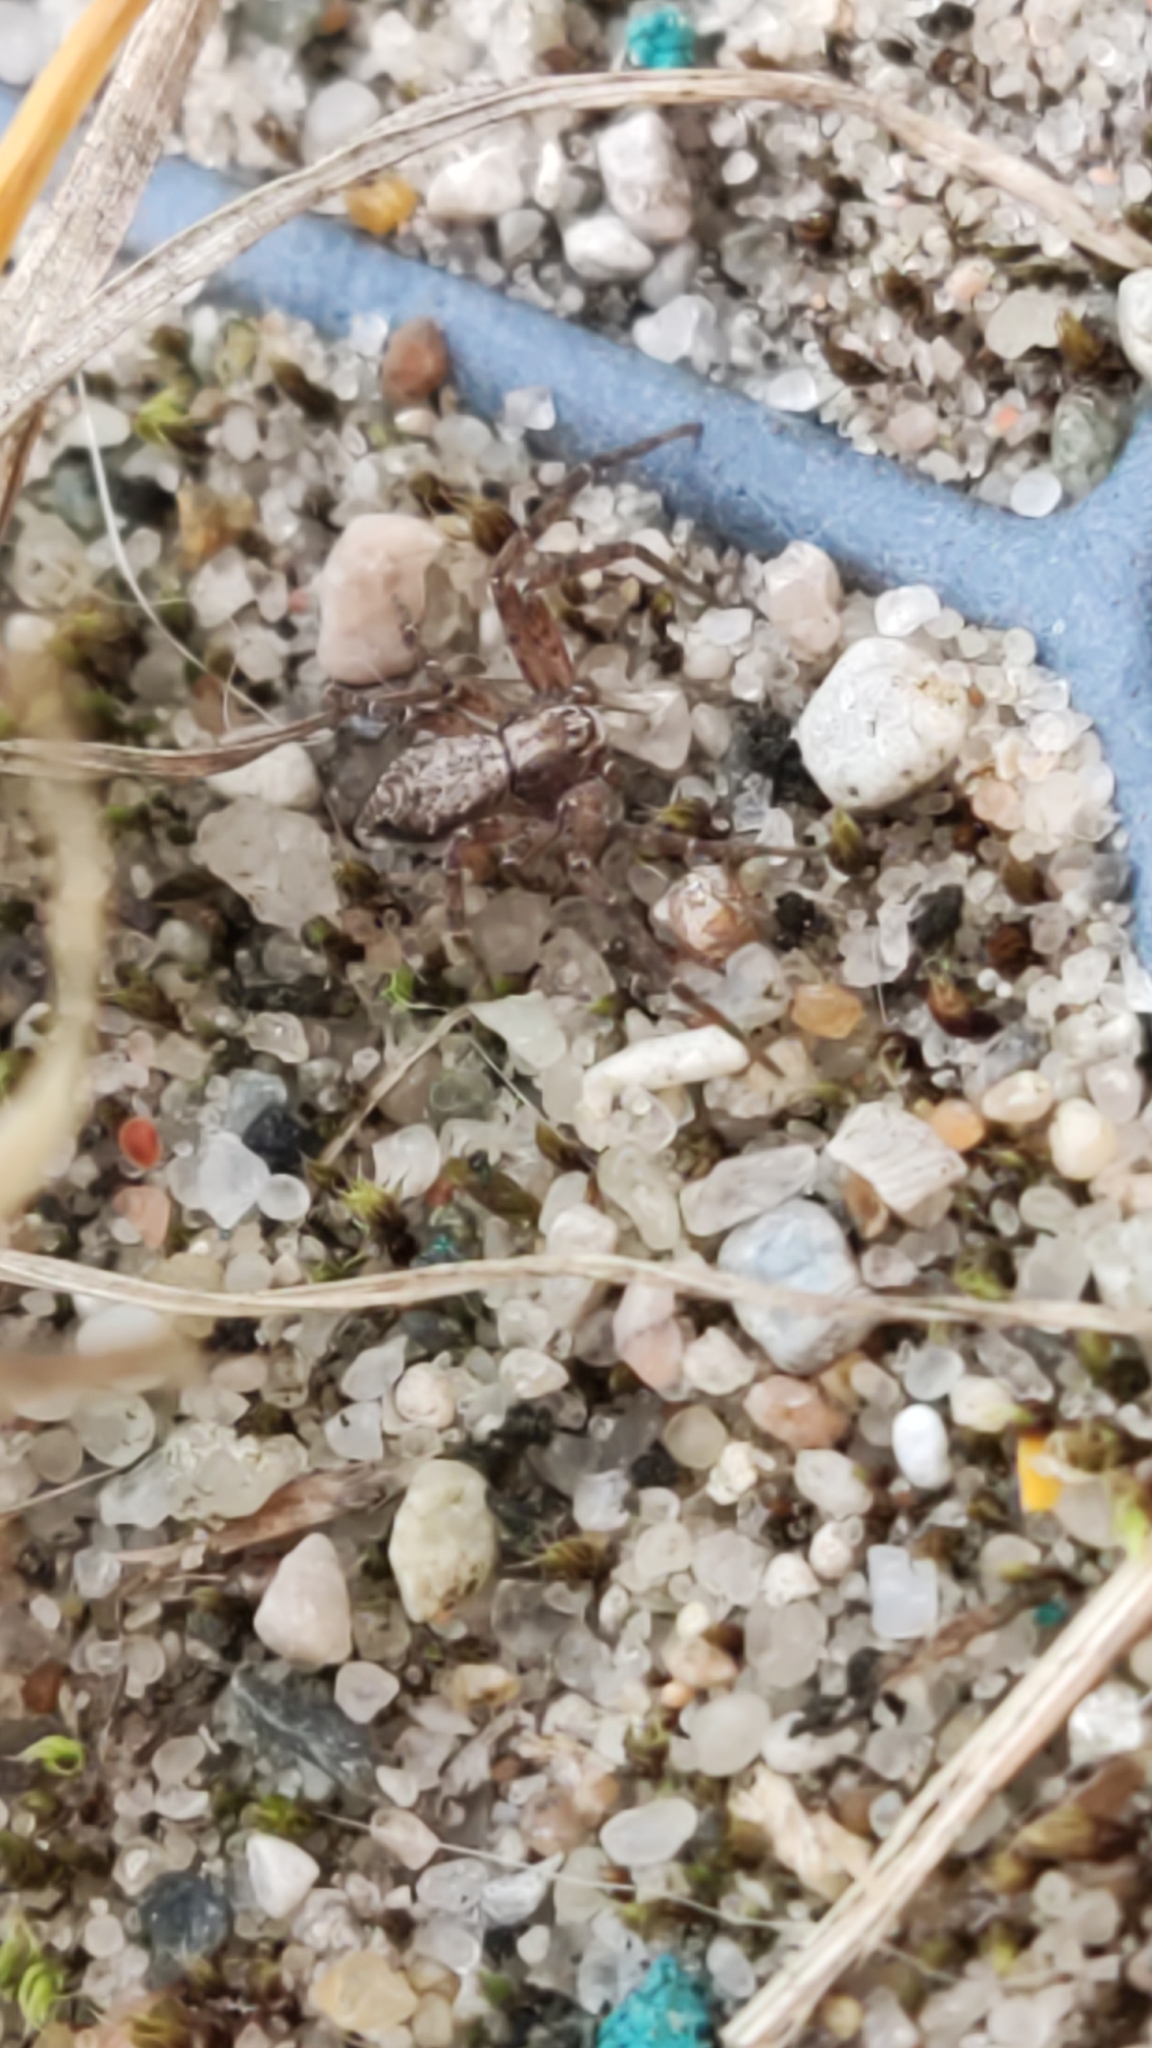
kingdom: Animalia
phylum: Arthropoda
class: Arachnida
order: Araneae
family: Philodromidae
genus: Philodromus
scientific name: Philodromus
